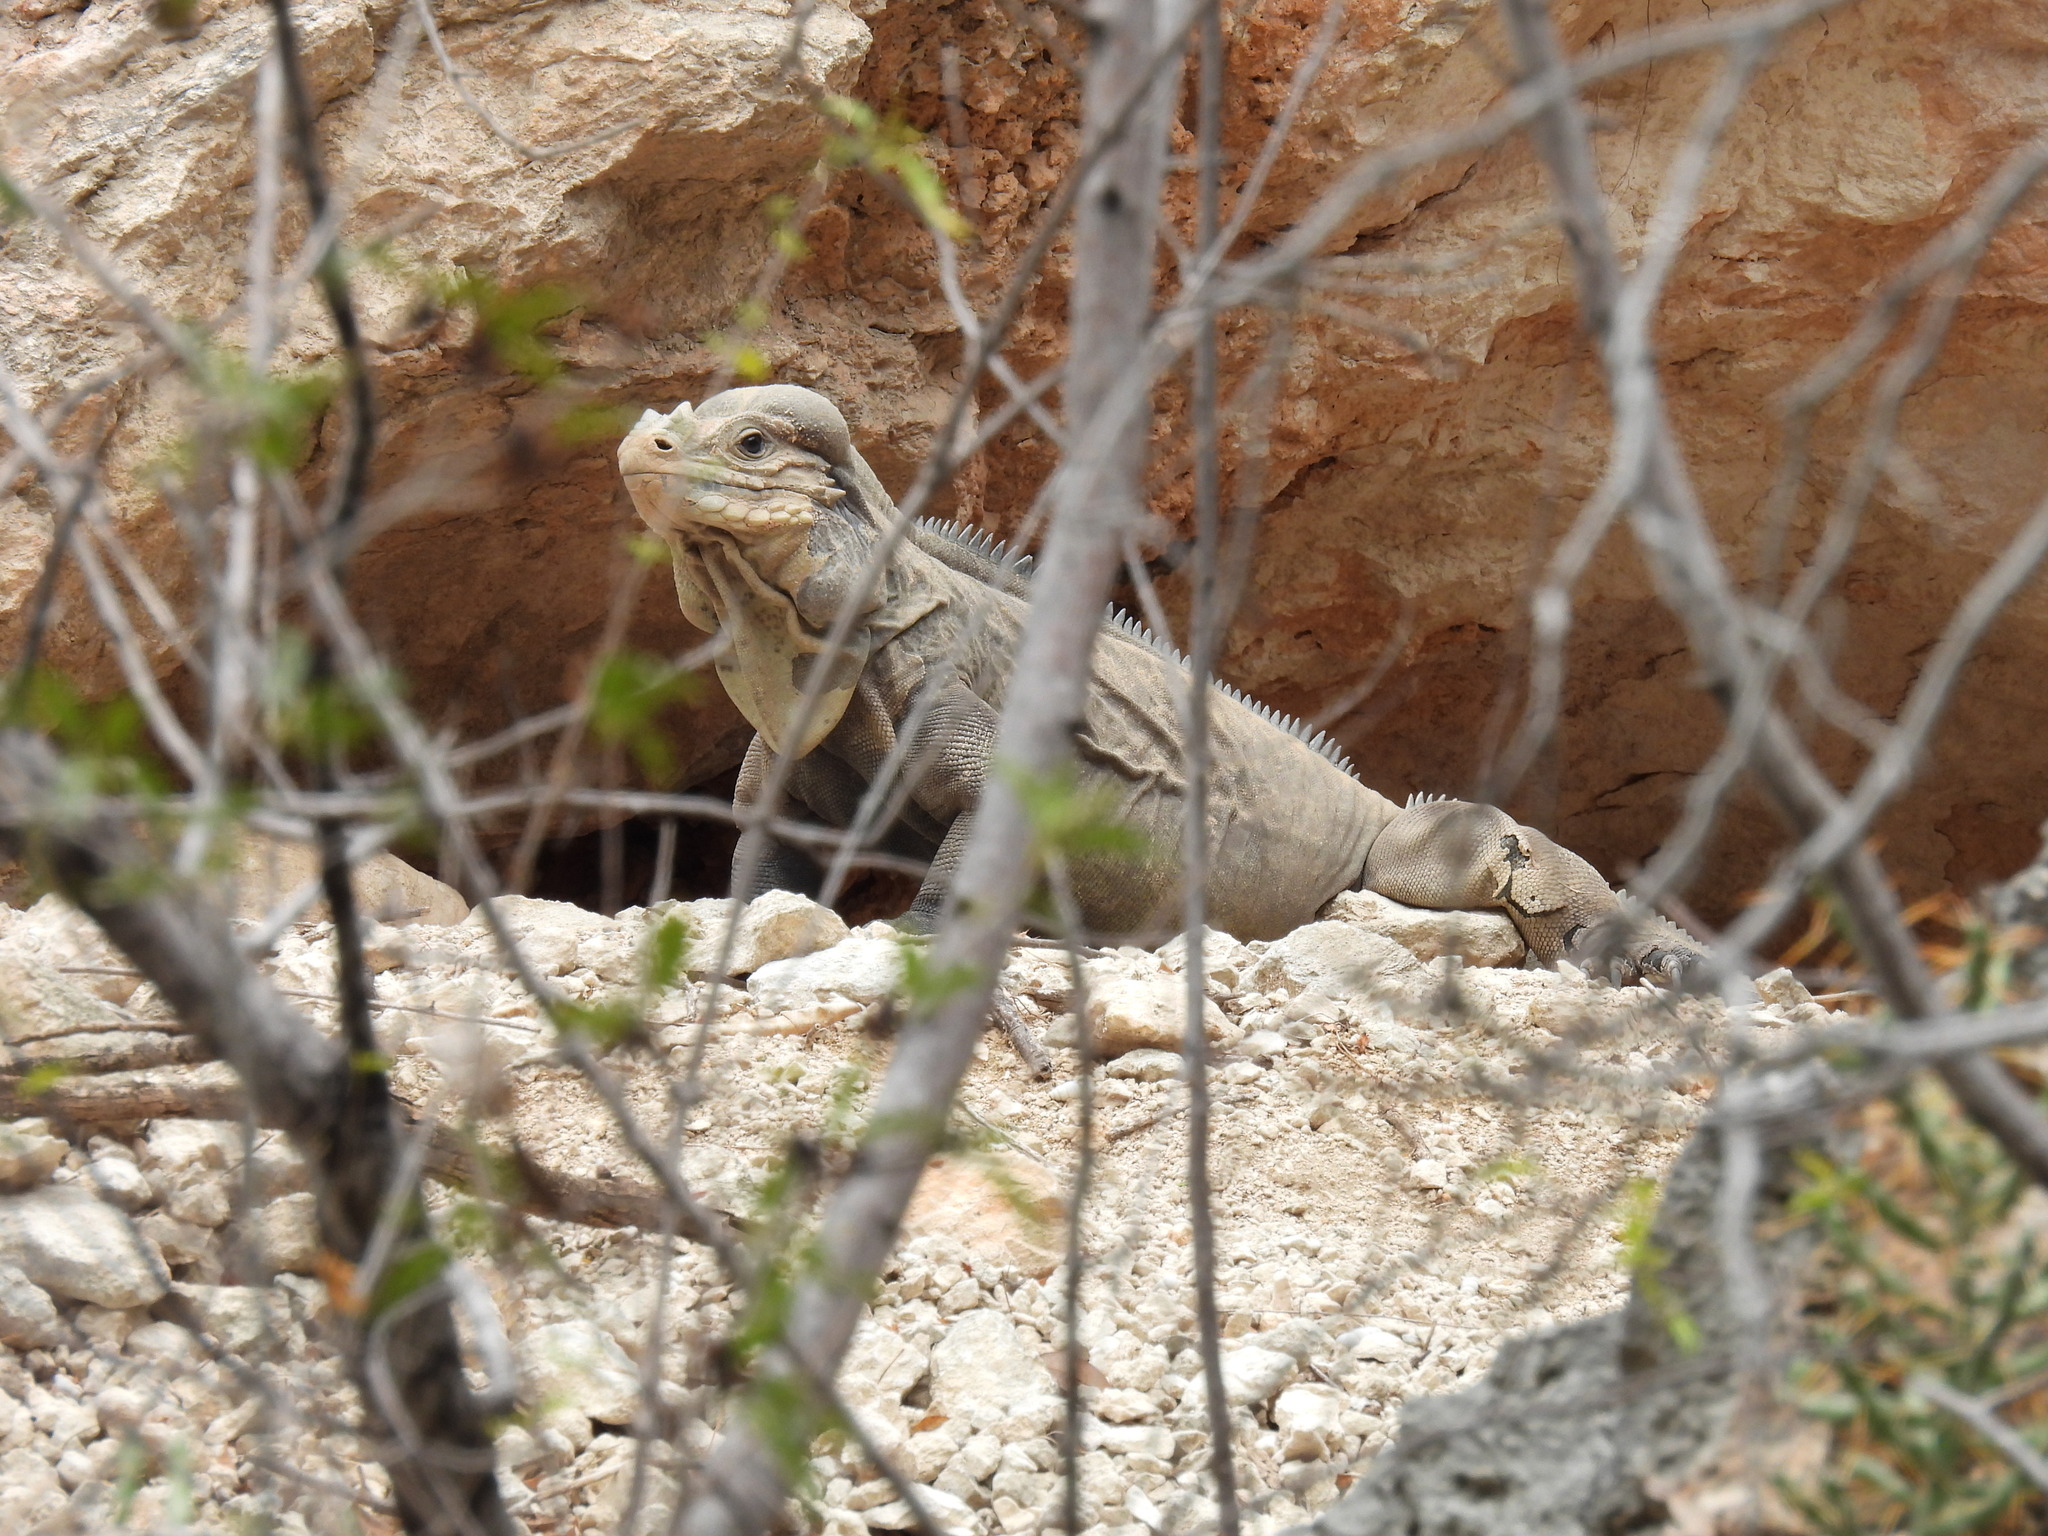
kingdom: Animalia
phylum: Chordata
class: Squamata
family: Iguanidae
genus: Cyclura
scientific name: Cyclura cornuta
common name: Hispaniolan rhinoceros iguana
